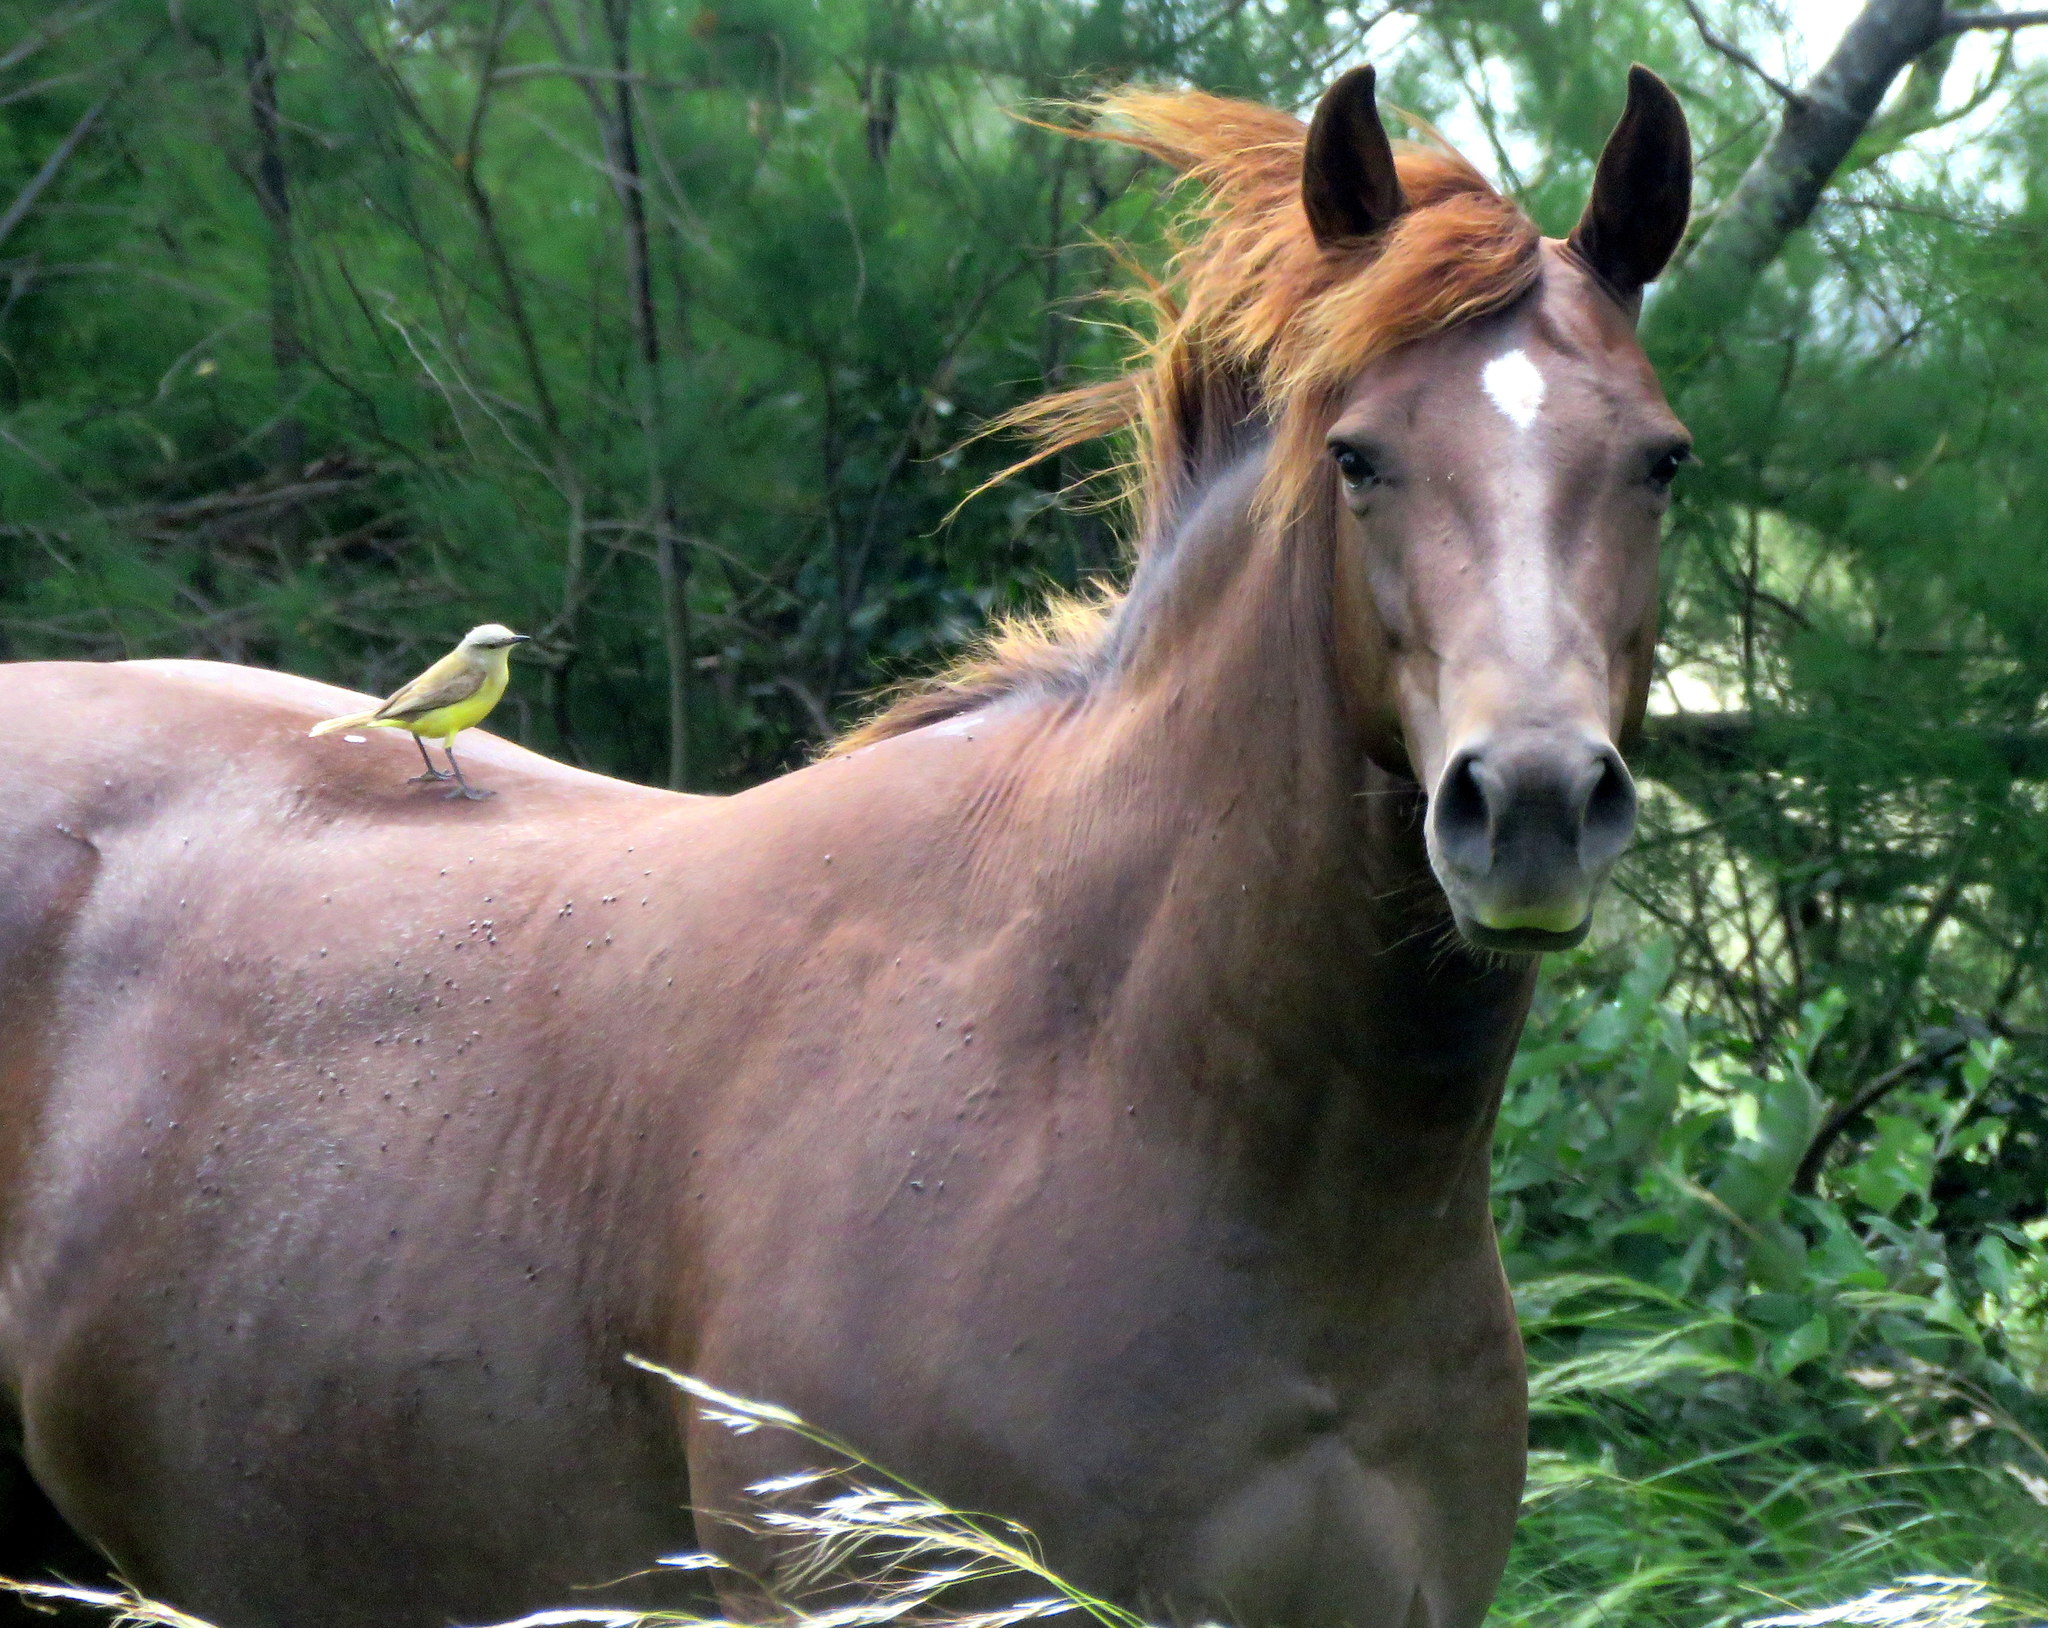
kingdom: Animalia
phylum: Chordata
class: Aves
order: Passeriformes
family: Tyrannidae
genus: Machetornis
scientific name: Machetornis rixosa
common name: Cattle tyrant
